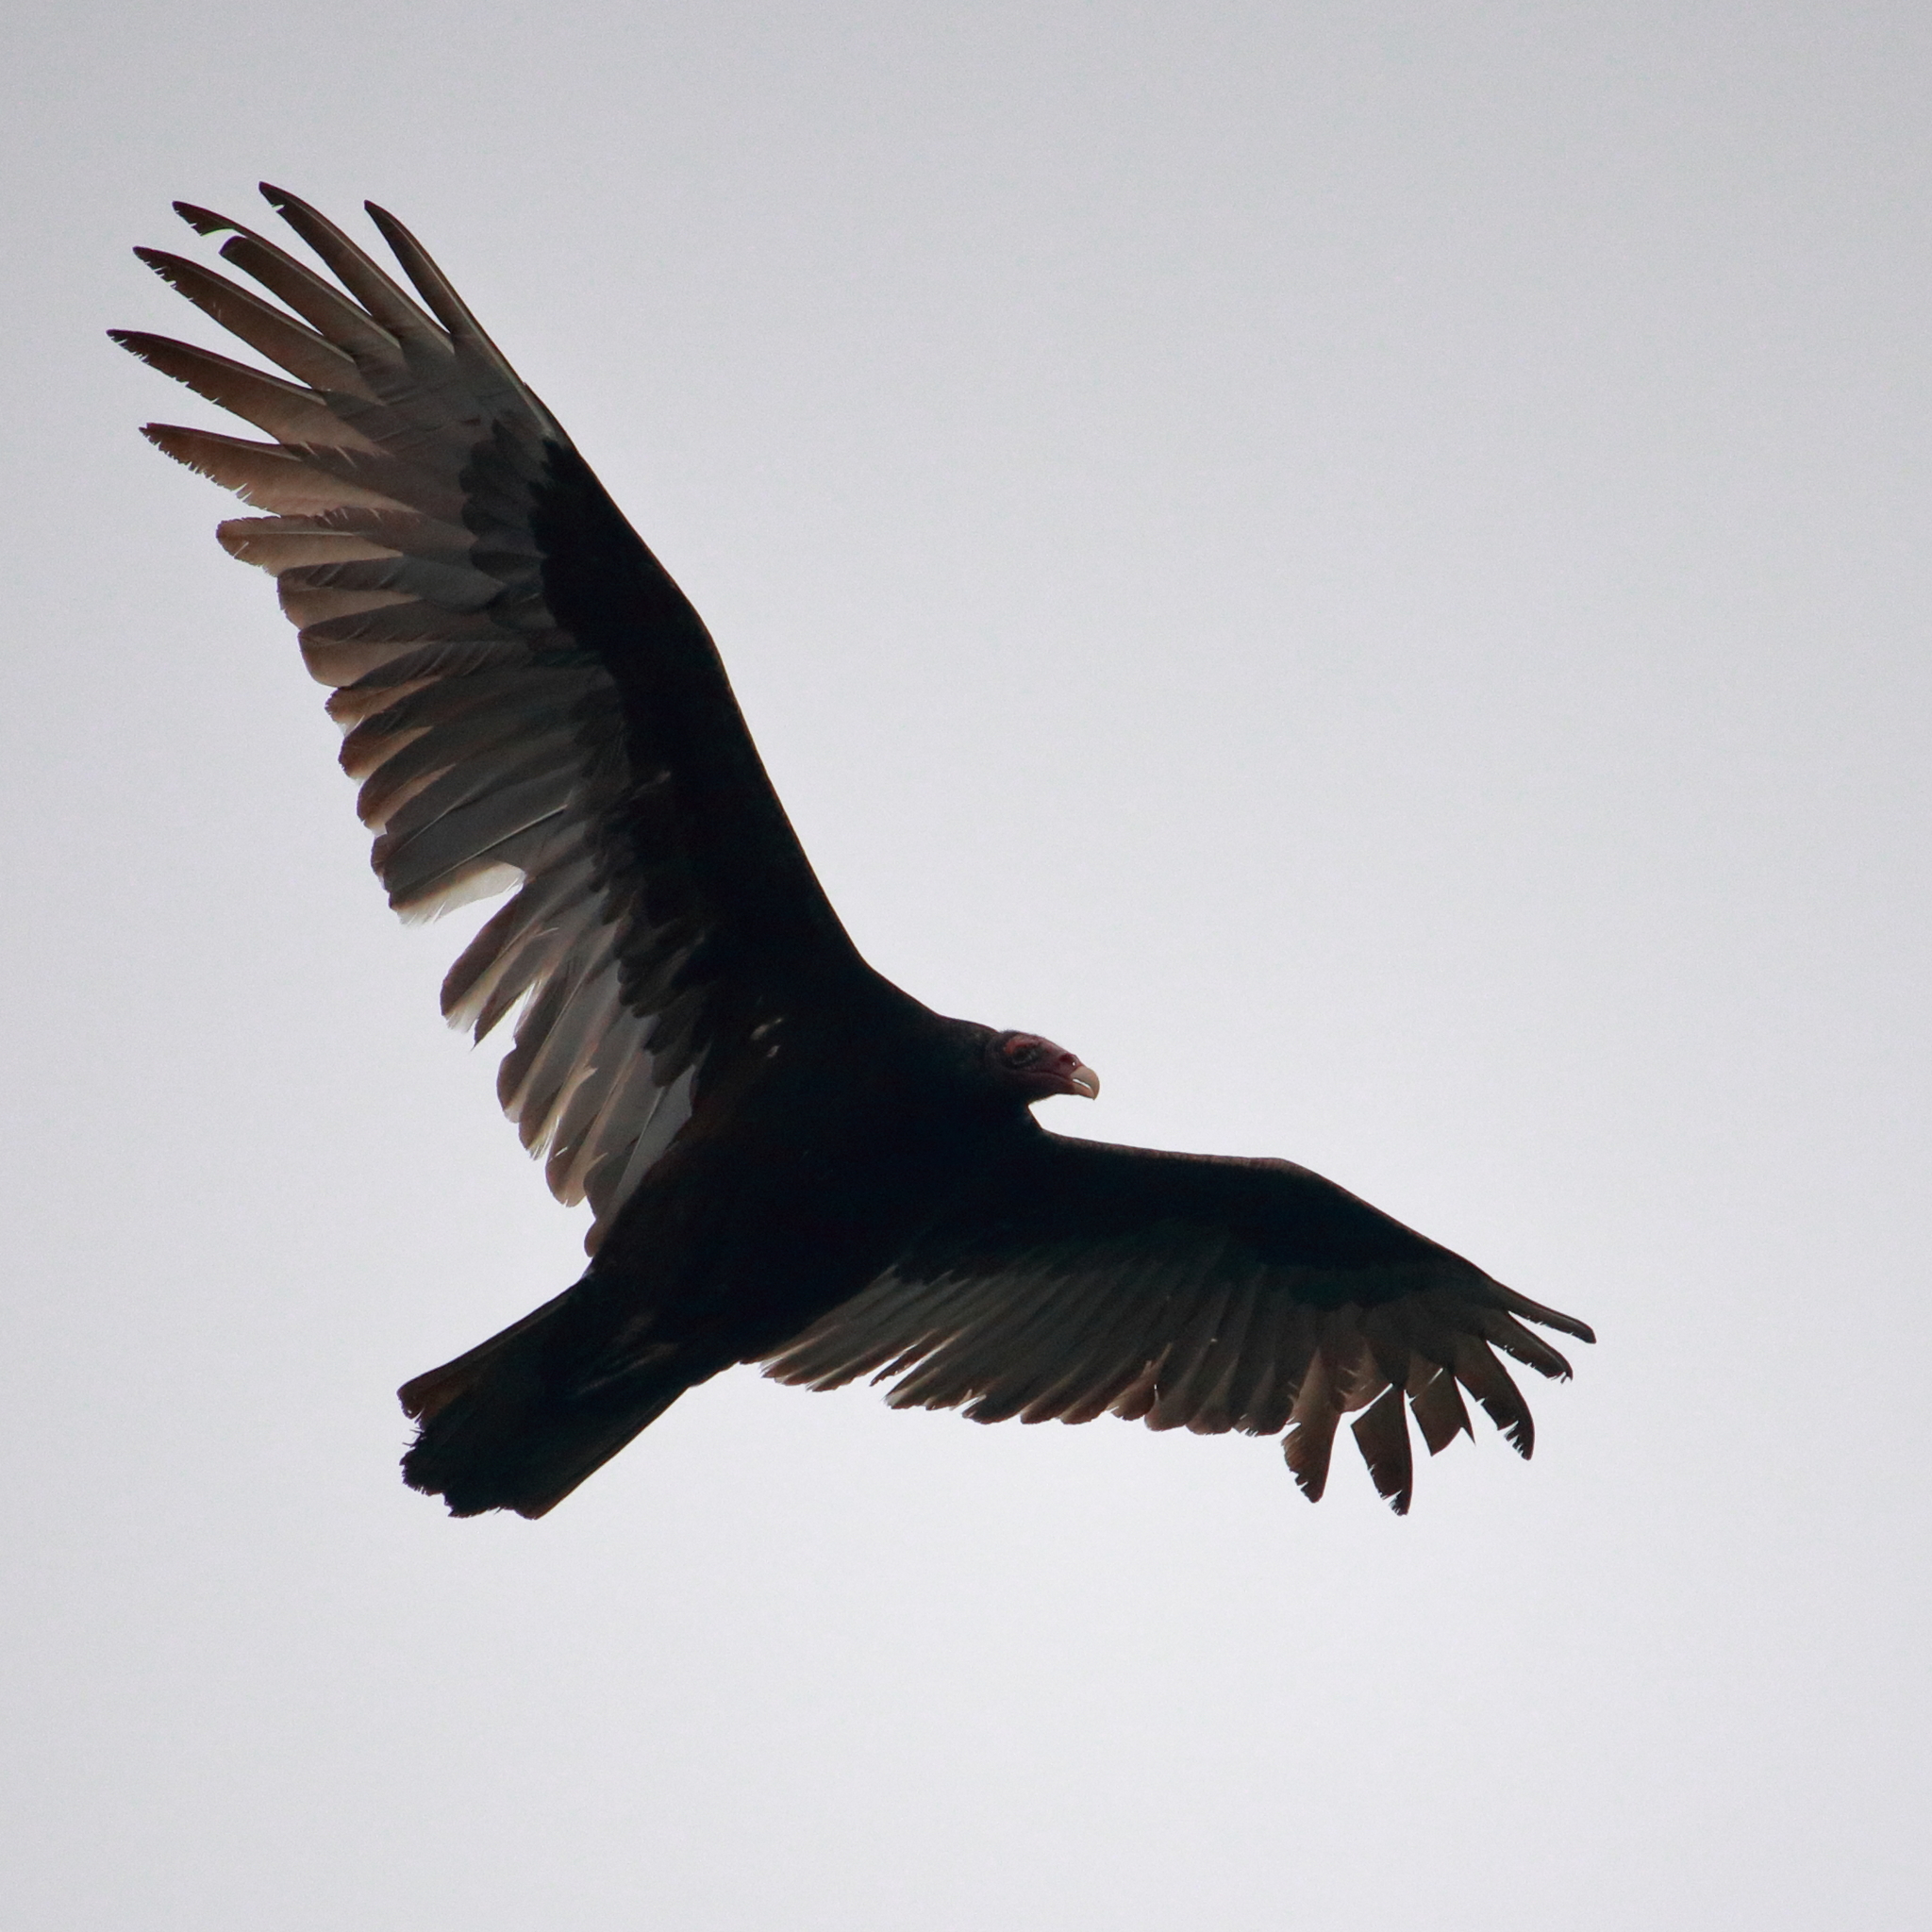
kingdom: Animalia
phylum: Chordata
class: Aves
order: Accipitriformes
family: Cathartidae
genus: Cathartes
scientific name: Cathartes aura
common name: Turkey vulture
